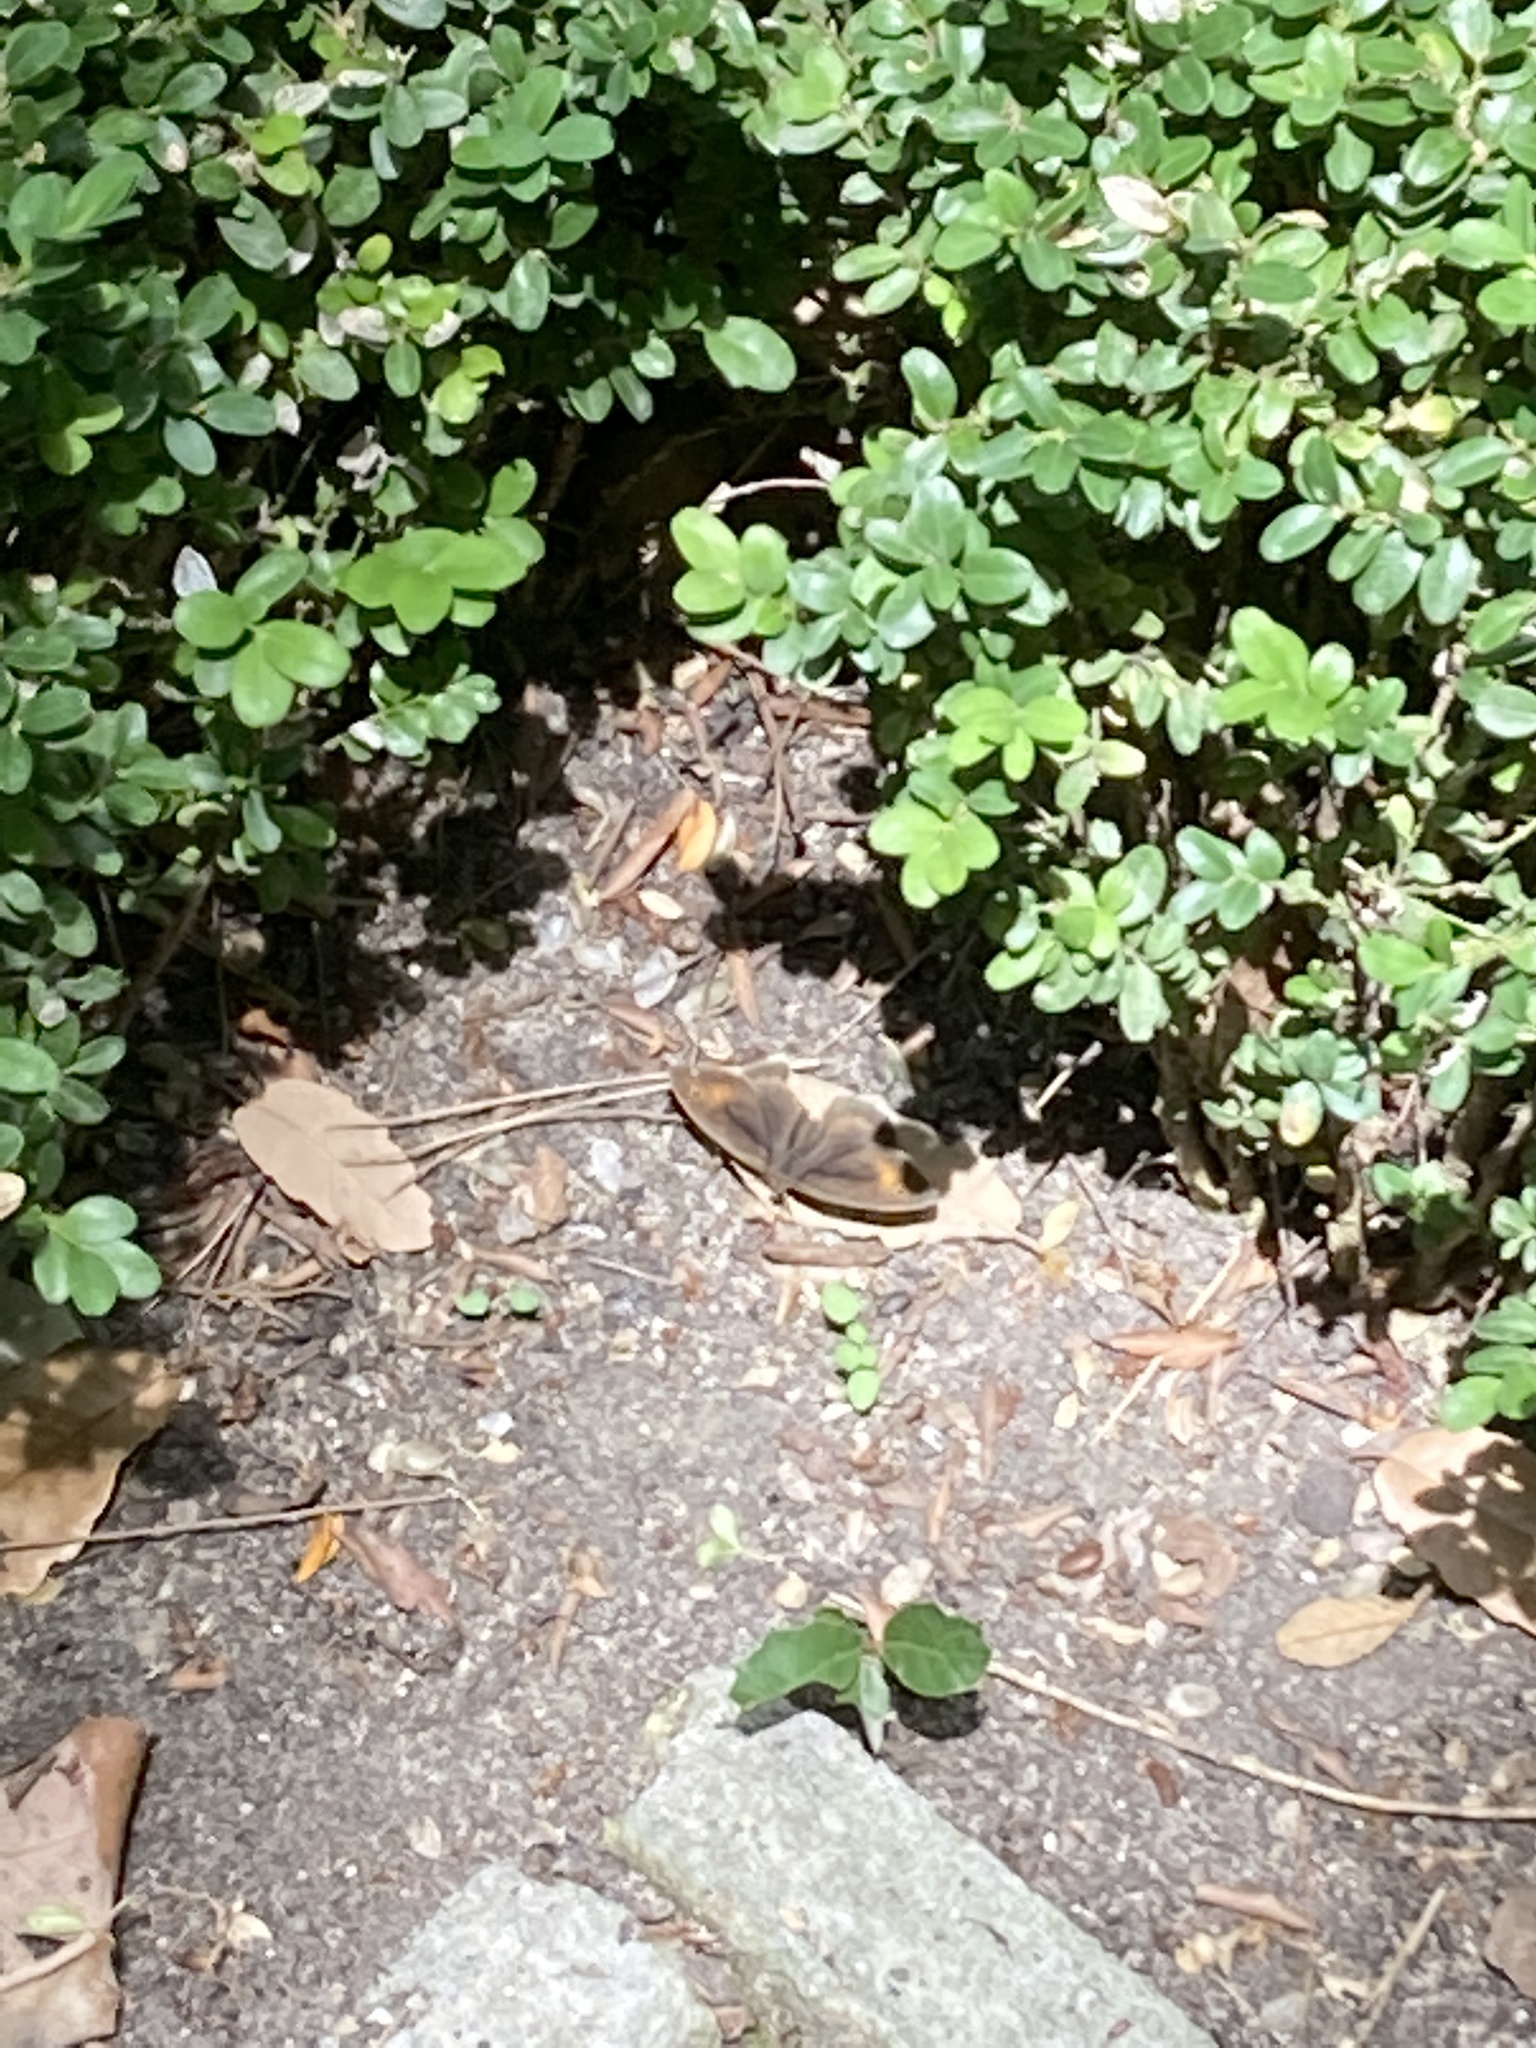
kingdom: Animalia
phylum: Arthropoda
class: Insecta
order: Lepidoptera
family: Nymphalidae
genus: Maniola
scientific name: Maniola jurtina
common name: Meadow brown
